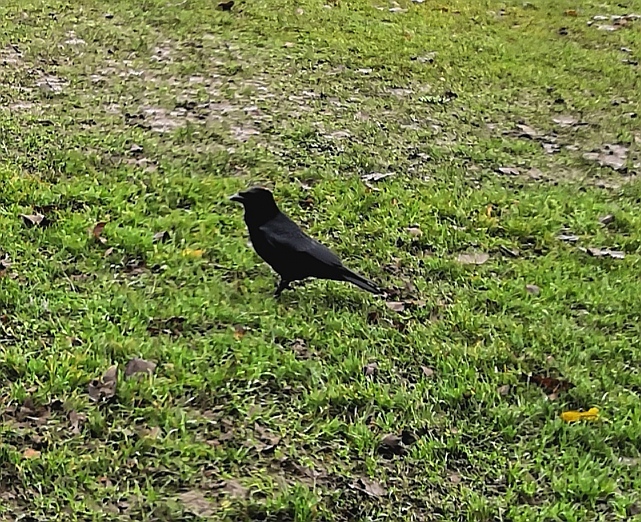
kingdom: Animalia
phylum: Chordata
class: Aves
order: Passeriformes
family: Corvidae
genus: Corvus
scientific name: Corvus corone
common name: Carrion crow
